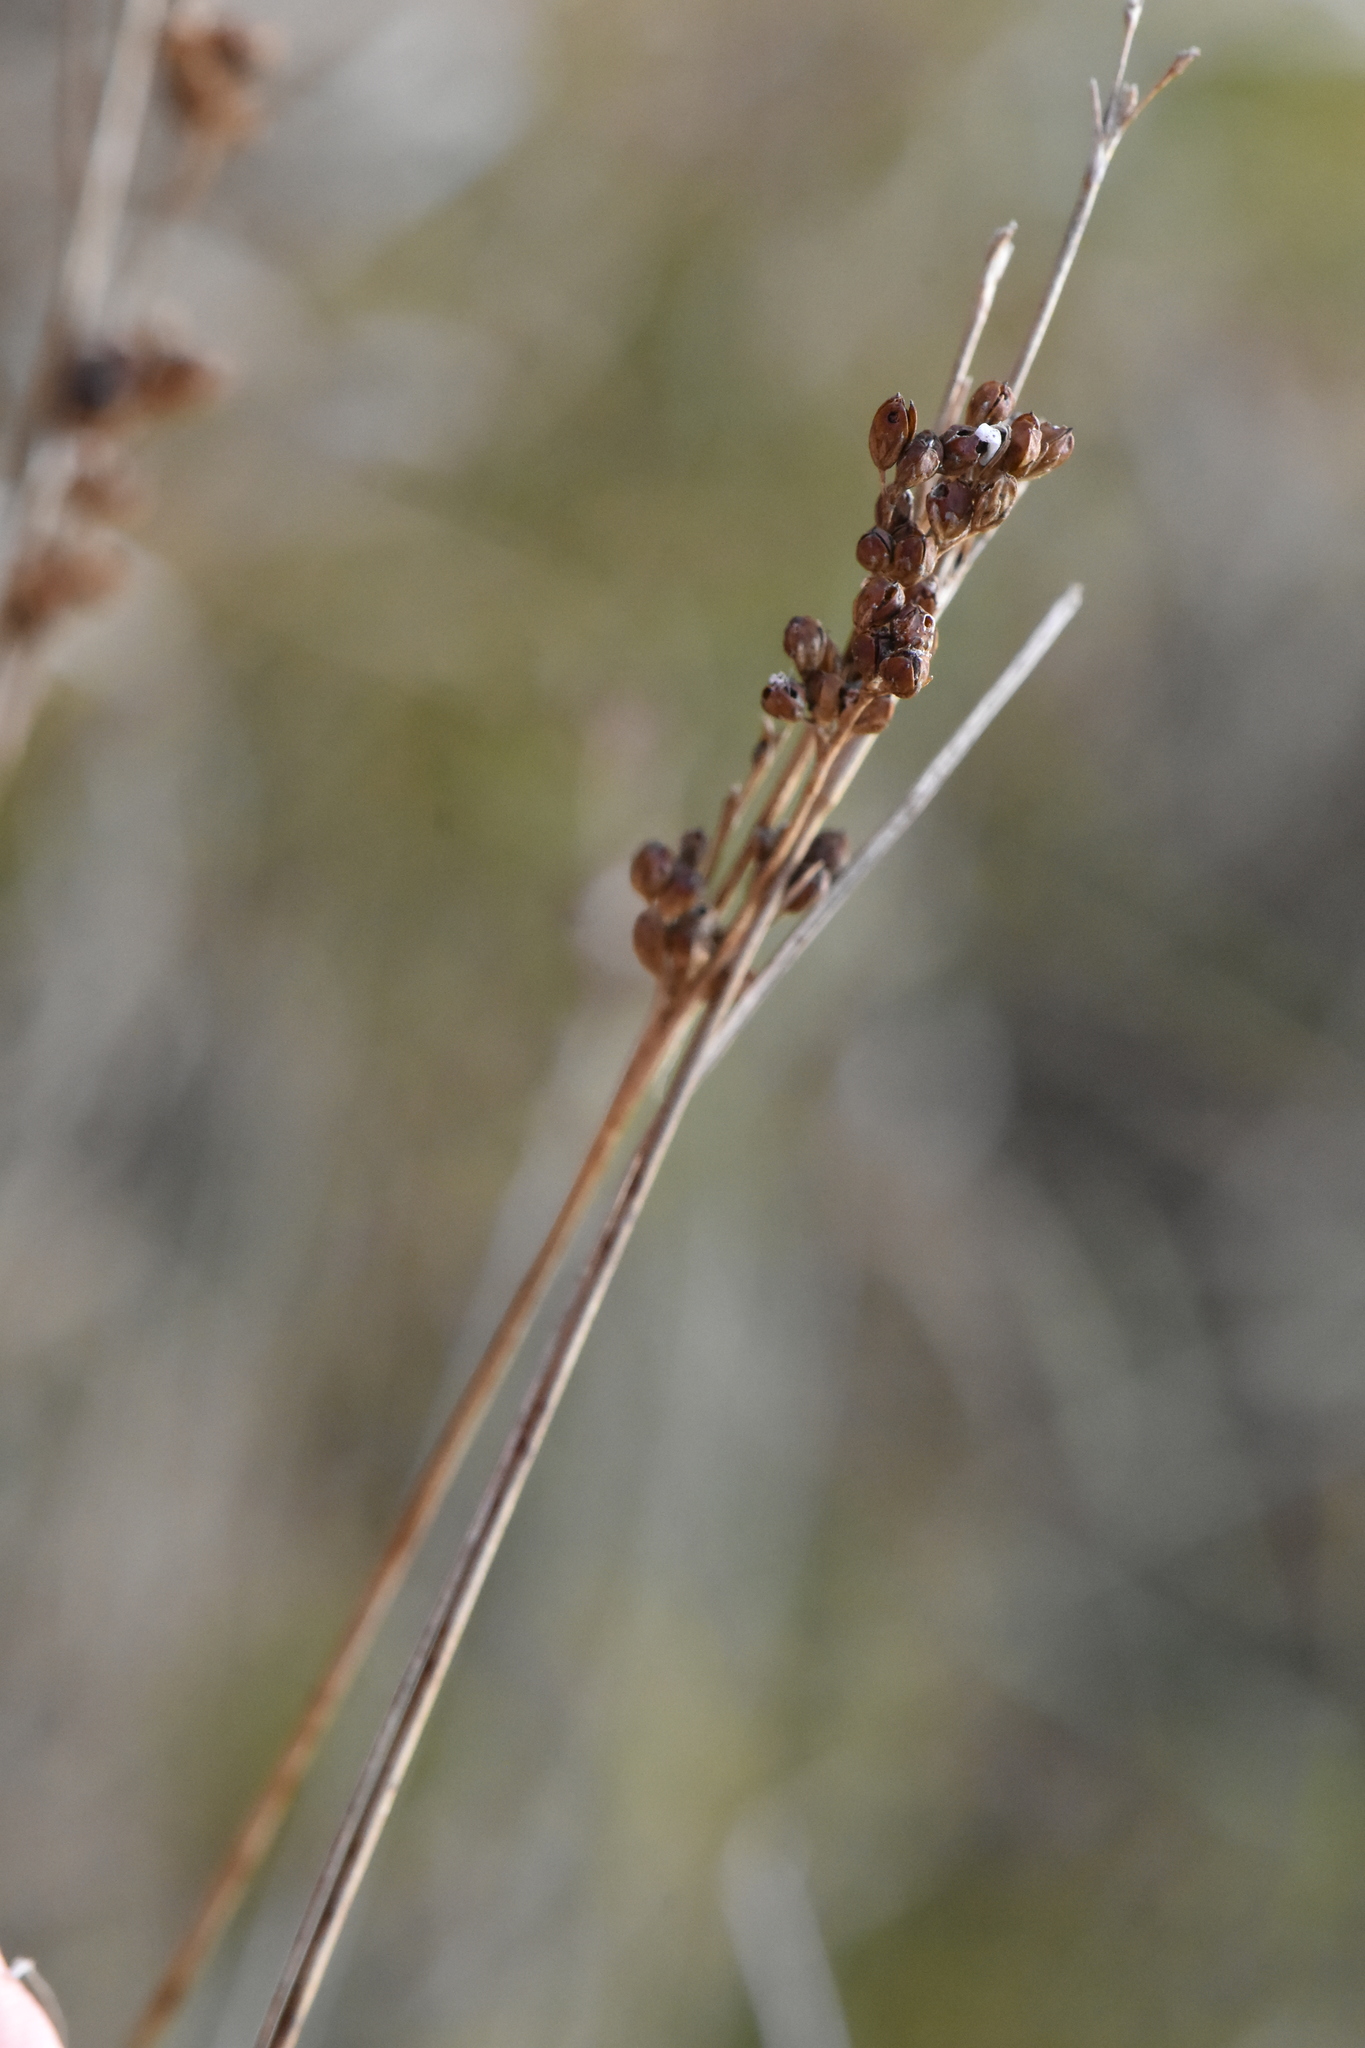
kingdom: Plantae
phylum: Tracheophyta
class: Liliopsida
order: Poales
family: Juncaceae
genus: Juncus
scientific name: Juncus compressus
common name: Round-fruited rush
